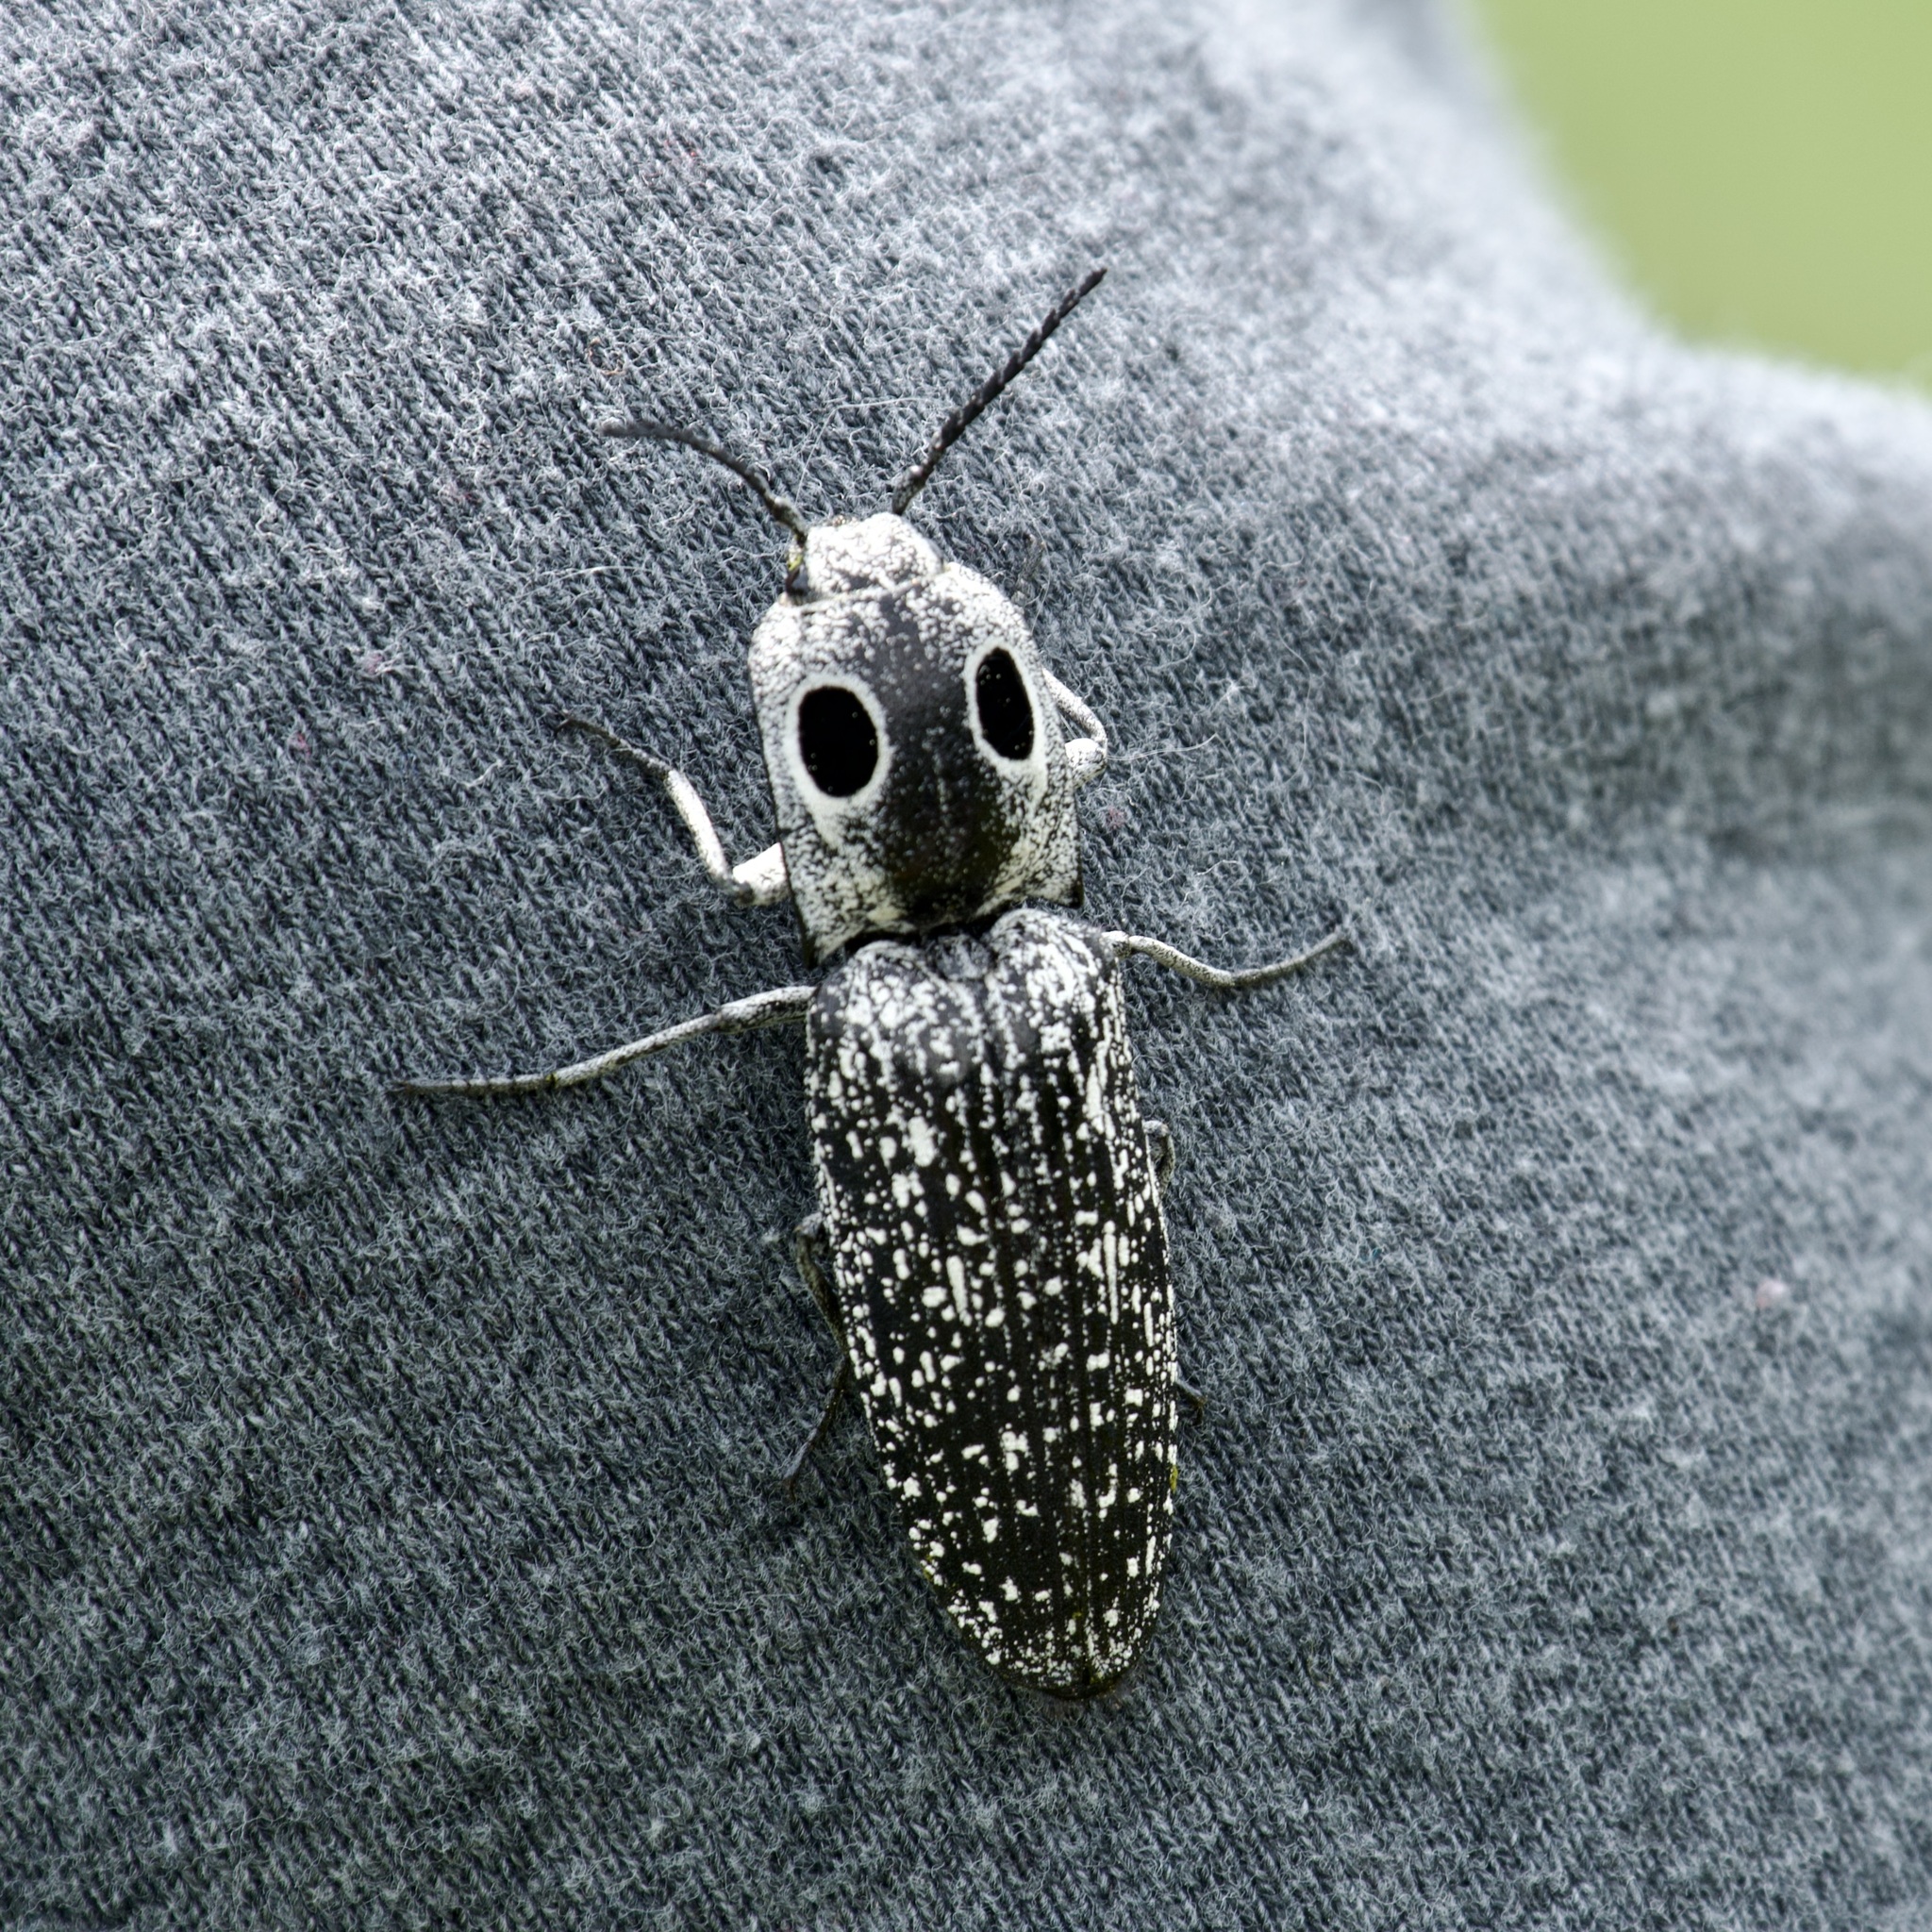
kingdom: Animalia
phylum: Arthropoda
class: Insecta
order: Coleoptera
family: Elateridae
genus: Alaus
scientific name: Alaus oculatus
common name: Eastern eyed click beetle
